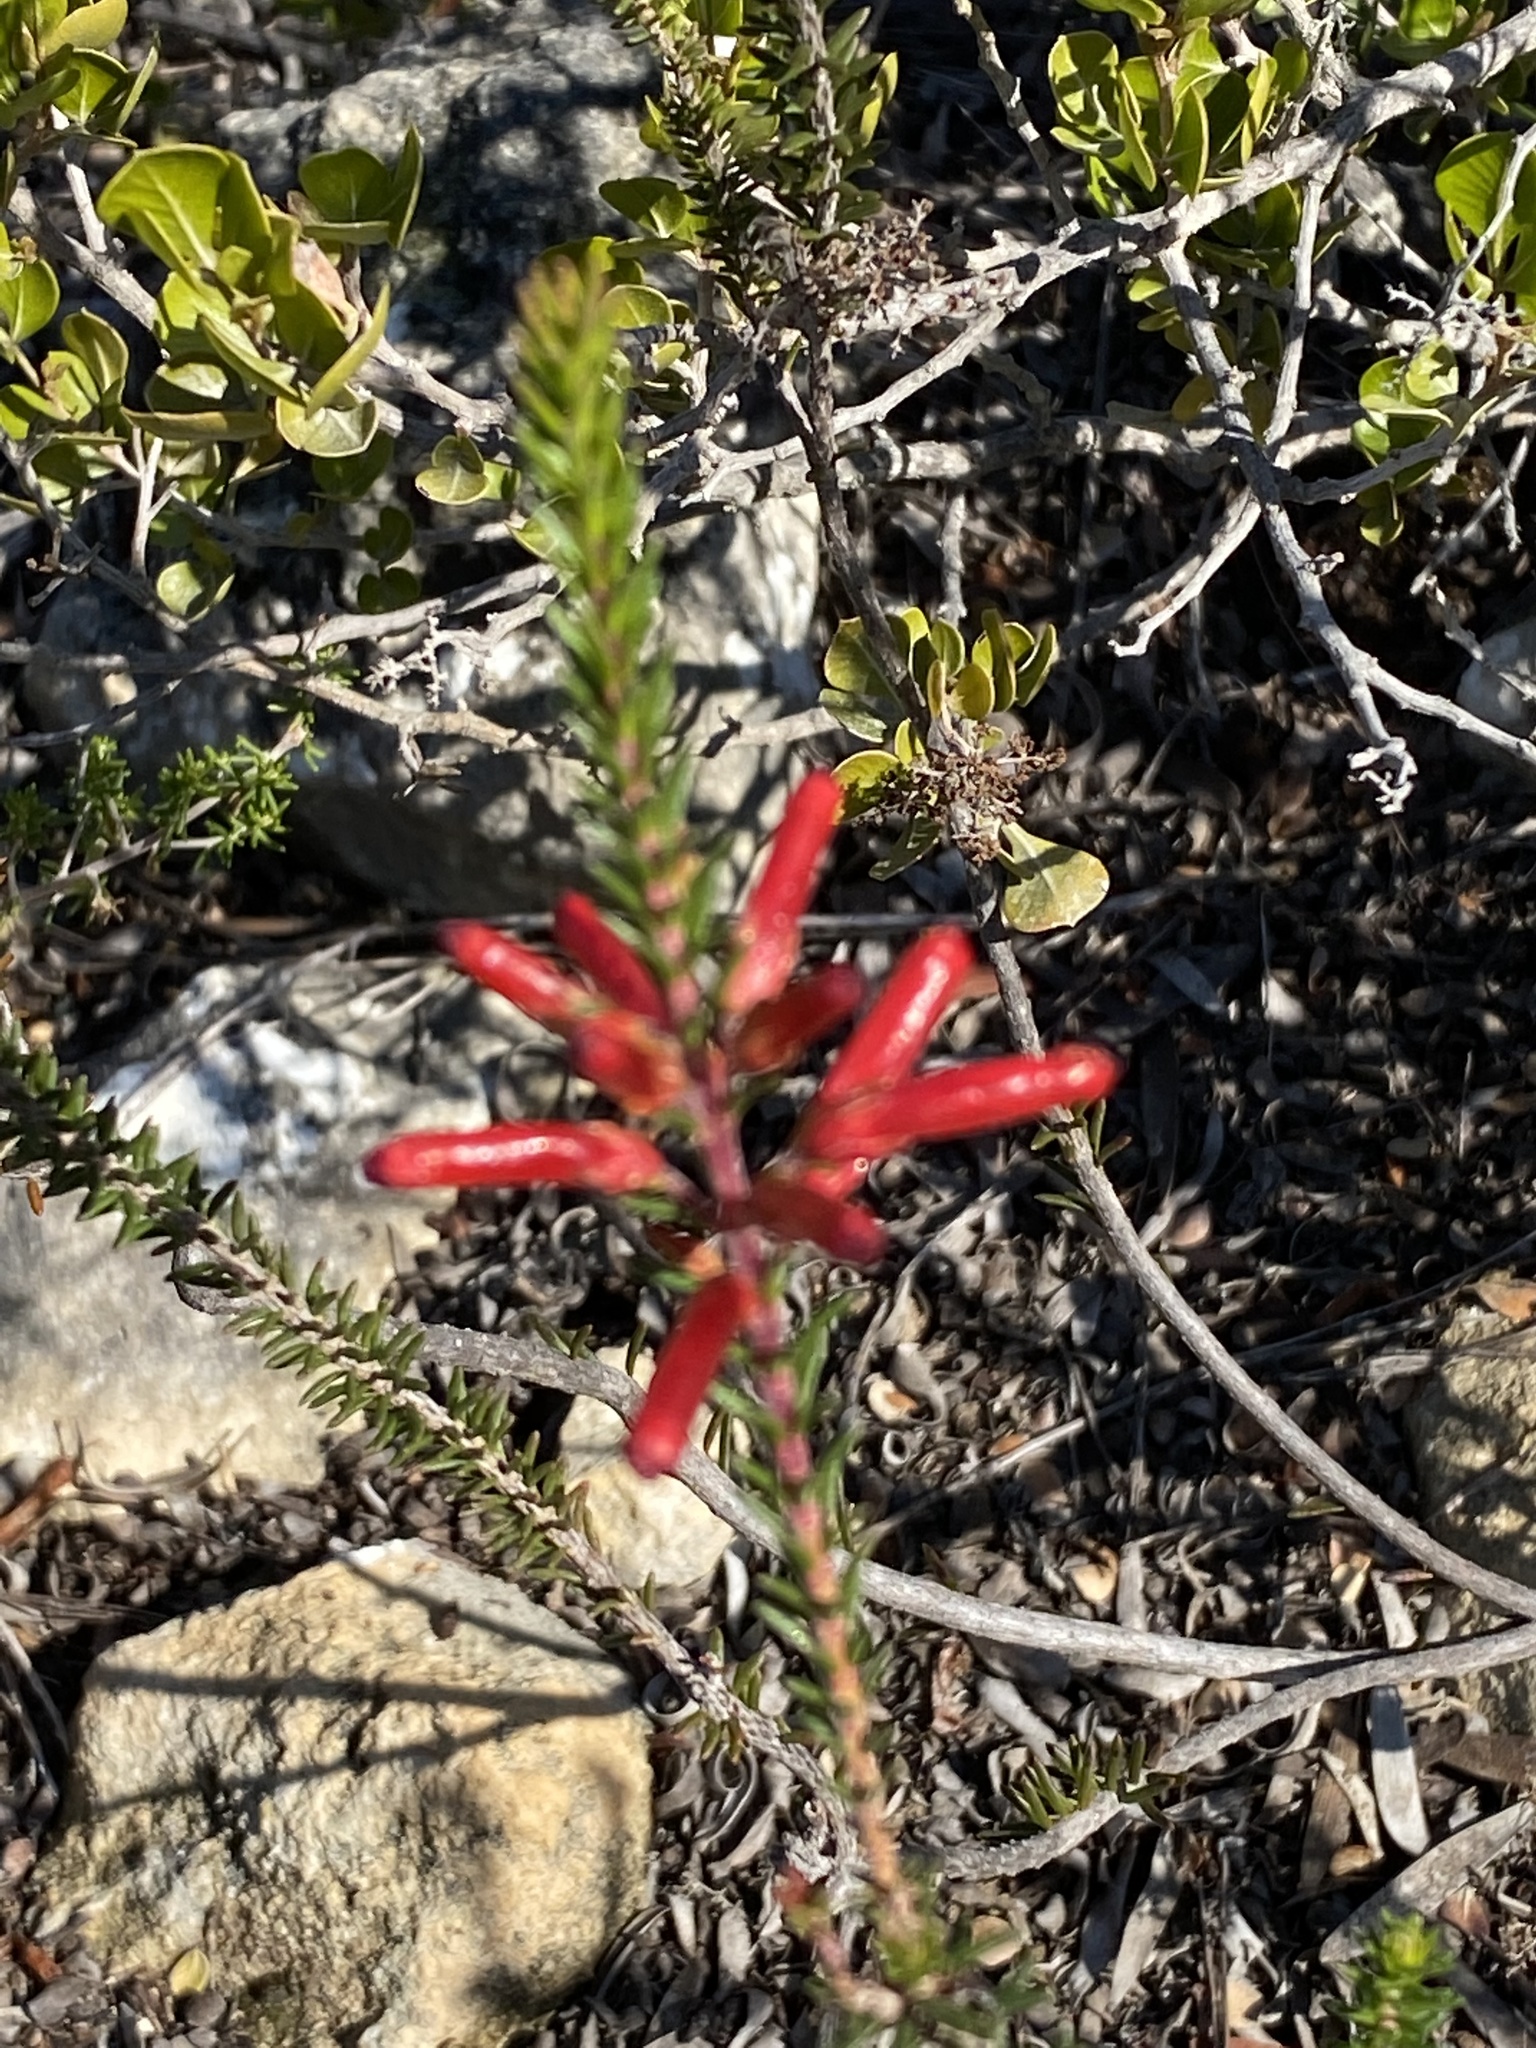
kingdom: Plantae
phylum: Tracheophyta
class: Magnoliopsida
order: Ericales
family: Ericaceae
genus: Erica
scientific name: Erica regia
